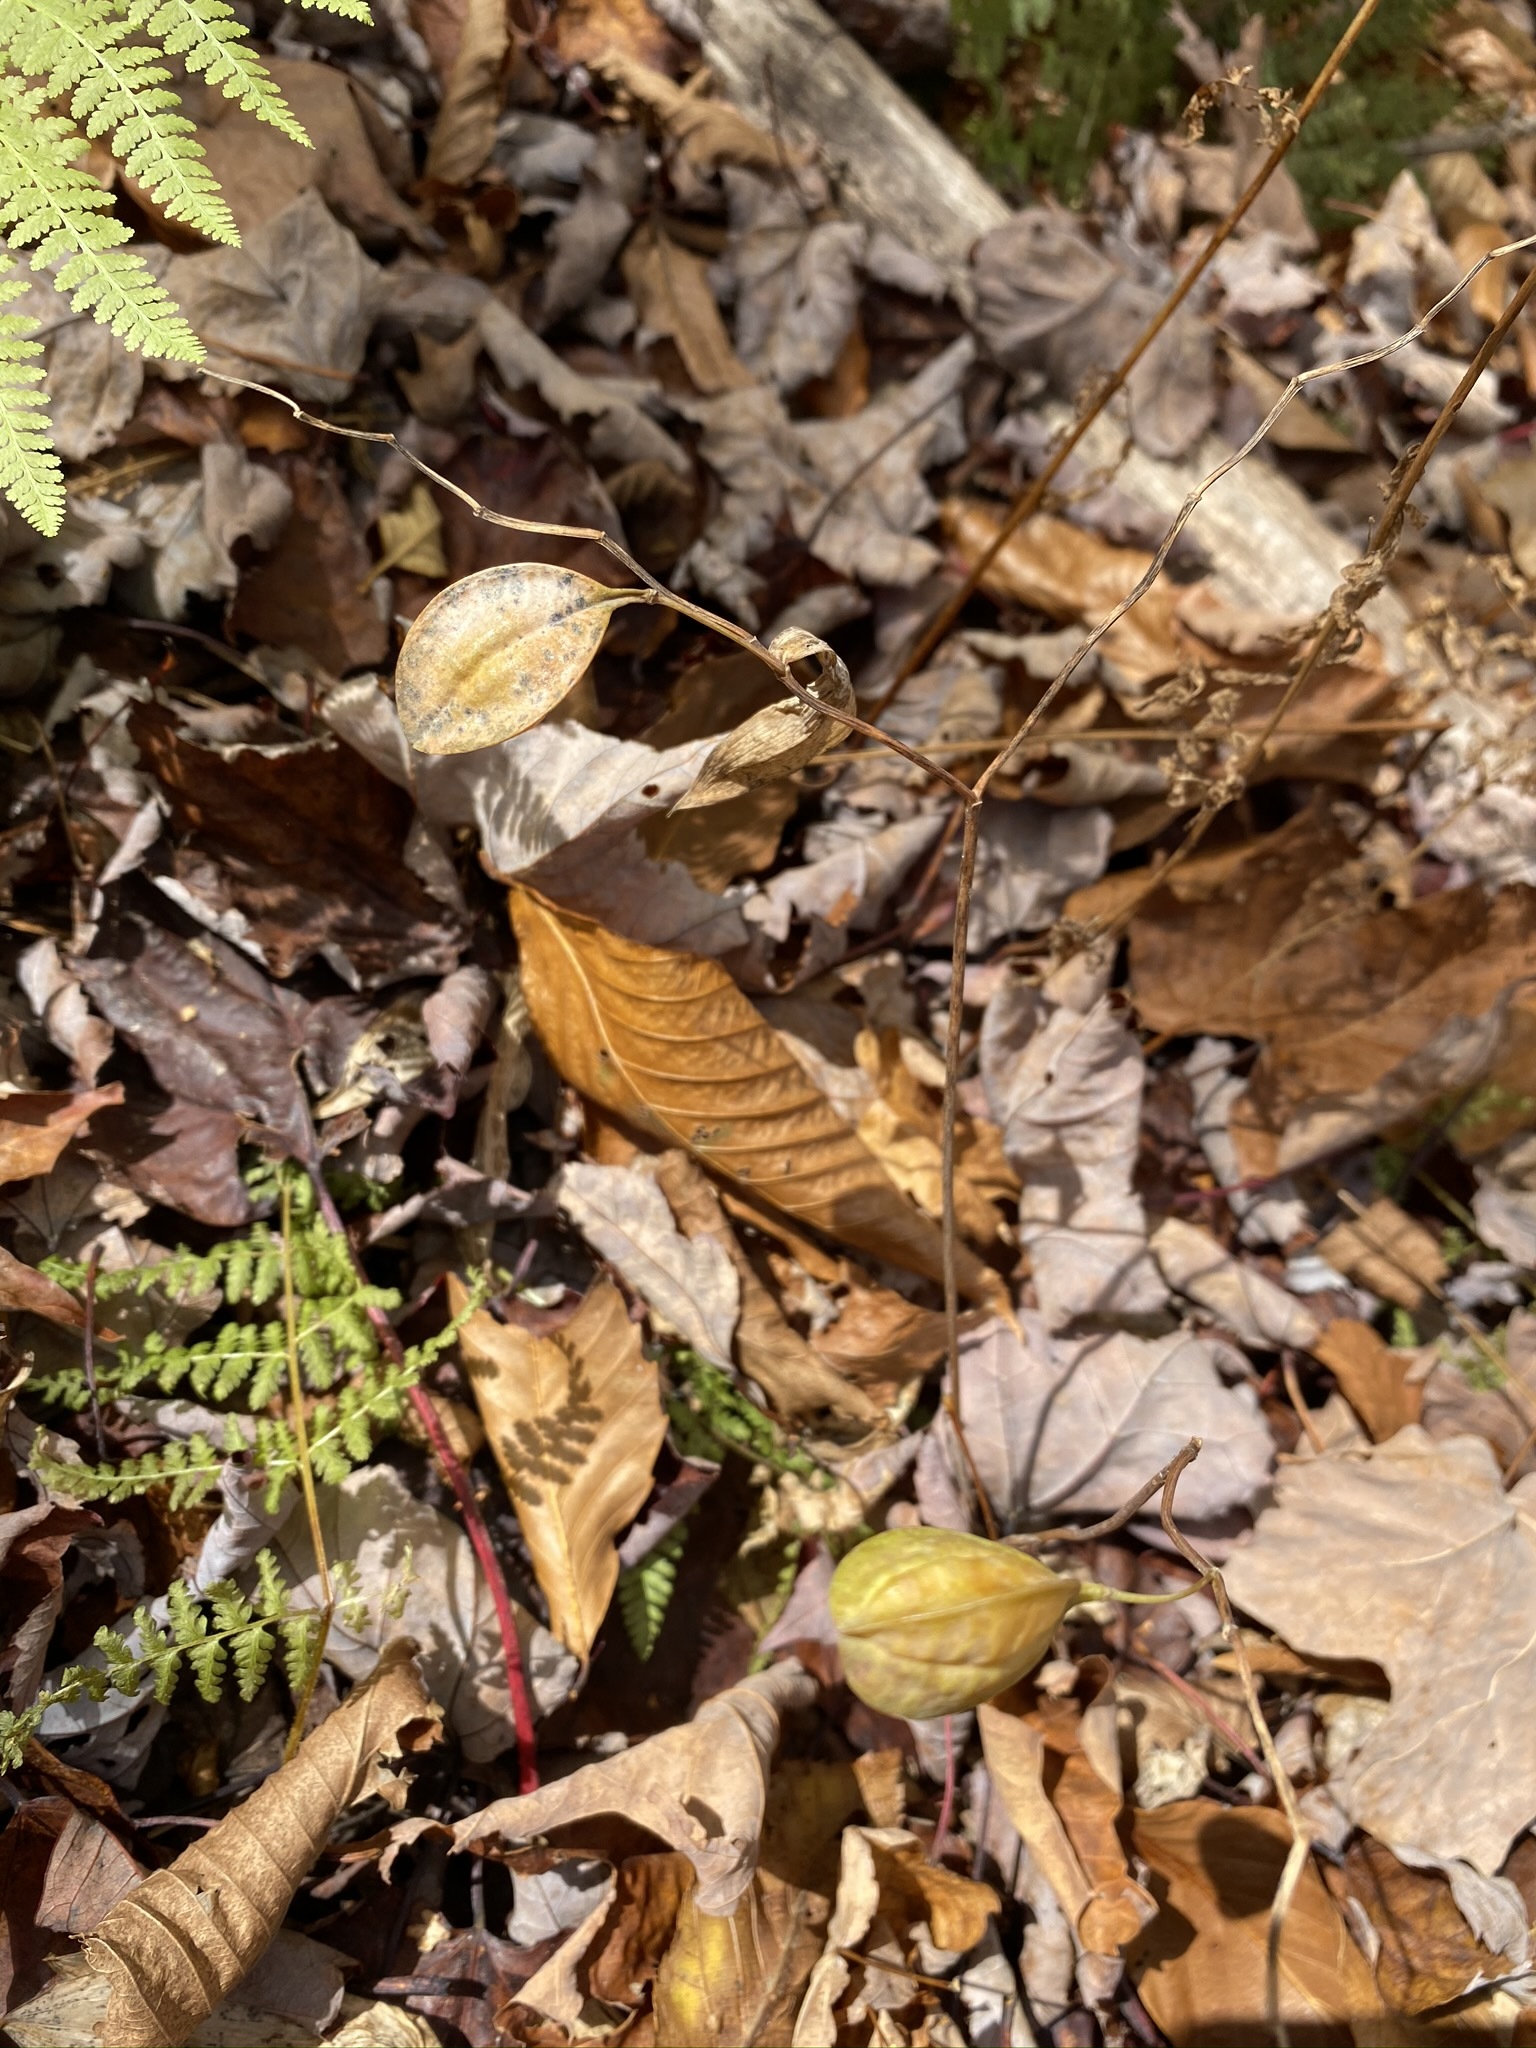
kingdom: Plantae
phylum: Tracheophyta
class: Liliopsida
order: Liliales
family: Colchicaceae
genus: Uvularia
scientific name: Uvularia sessilifolia
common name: Straw-lily
